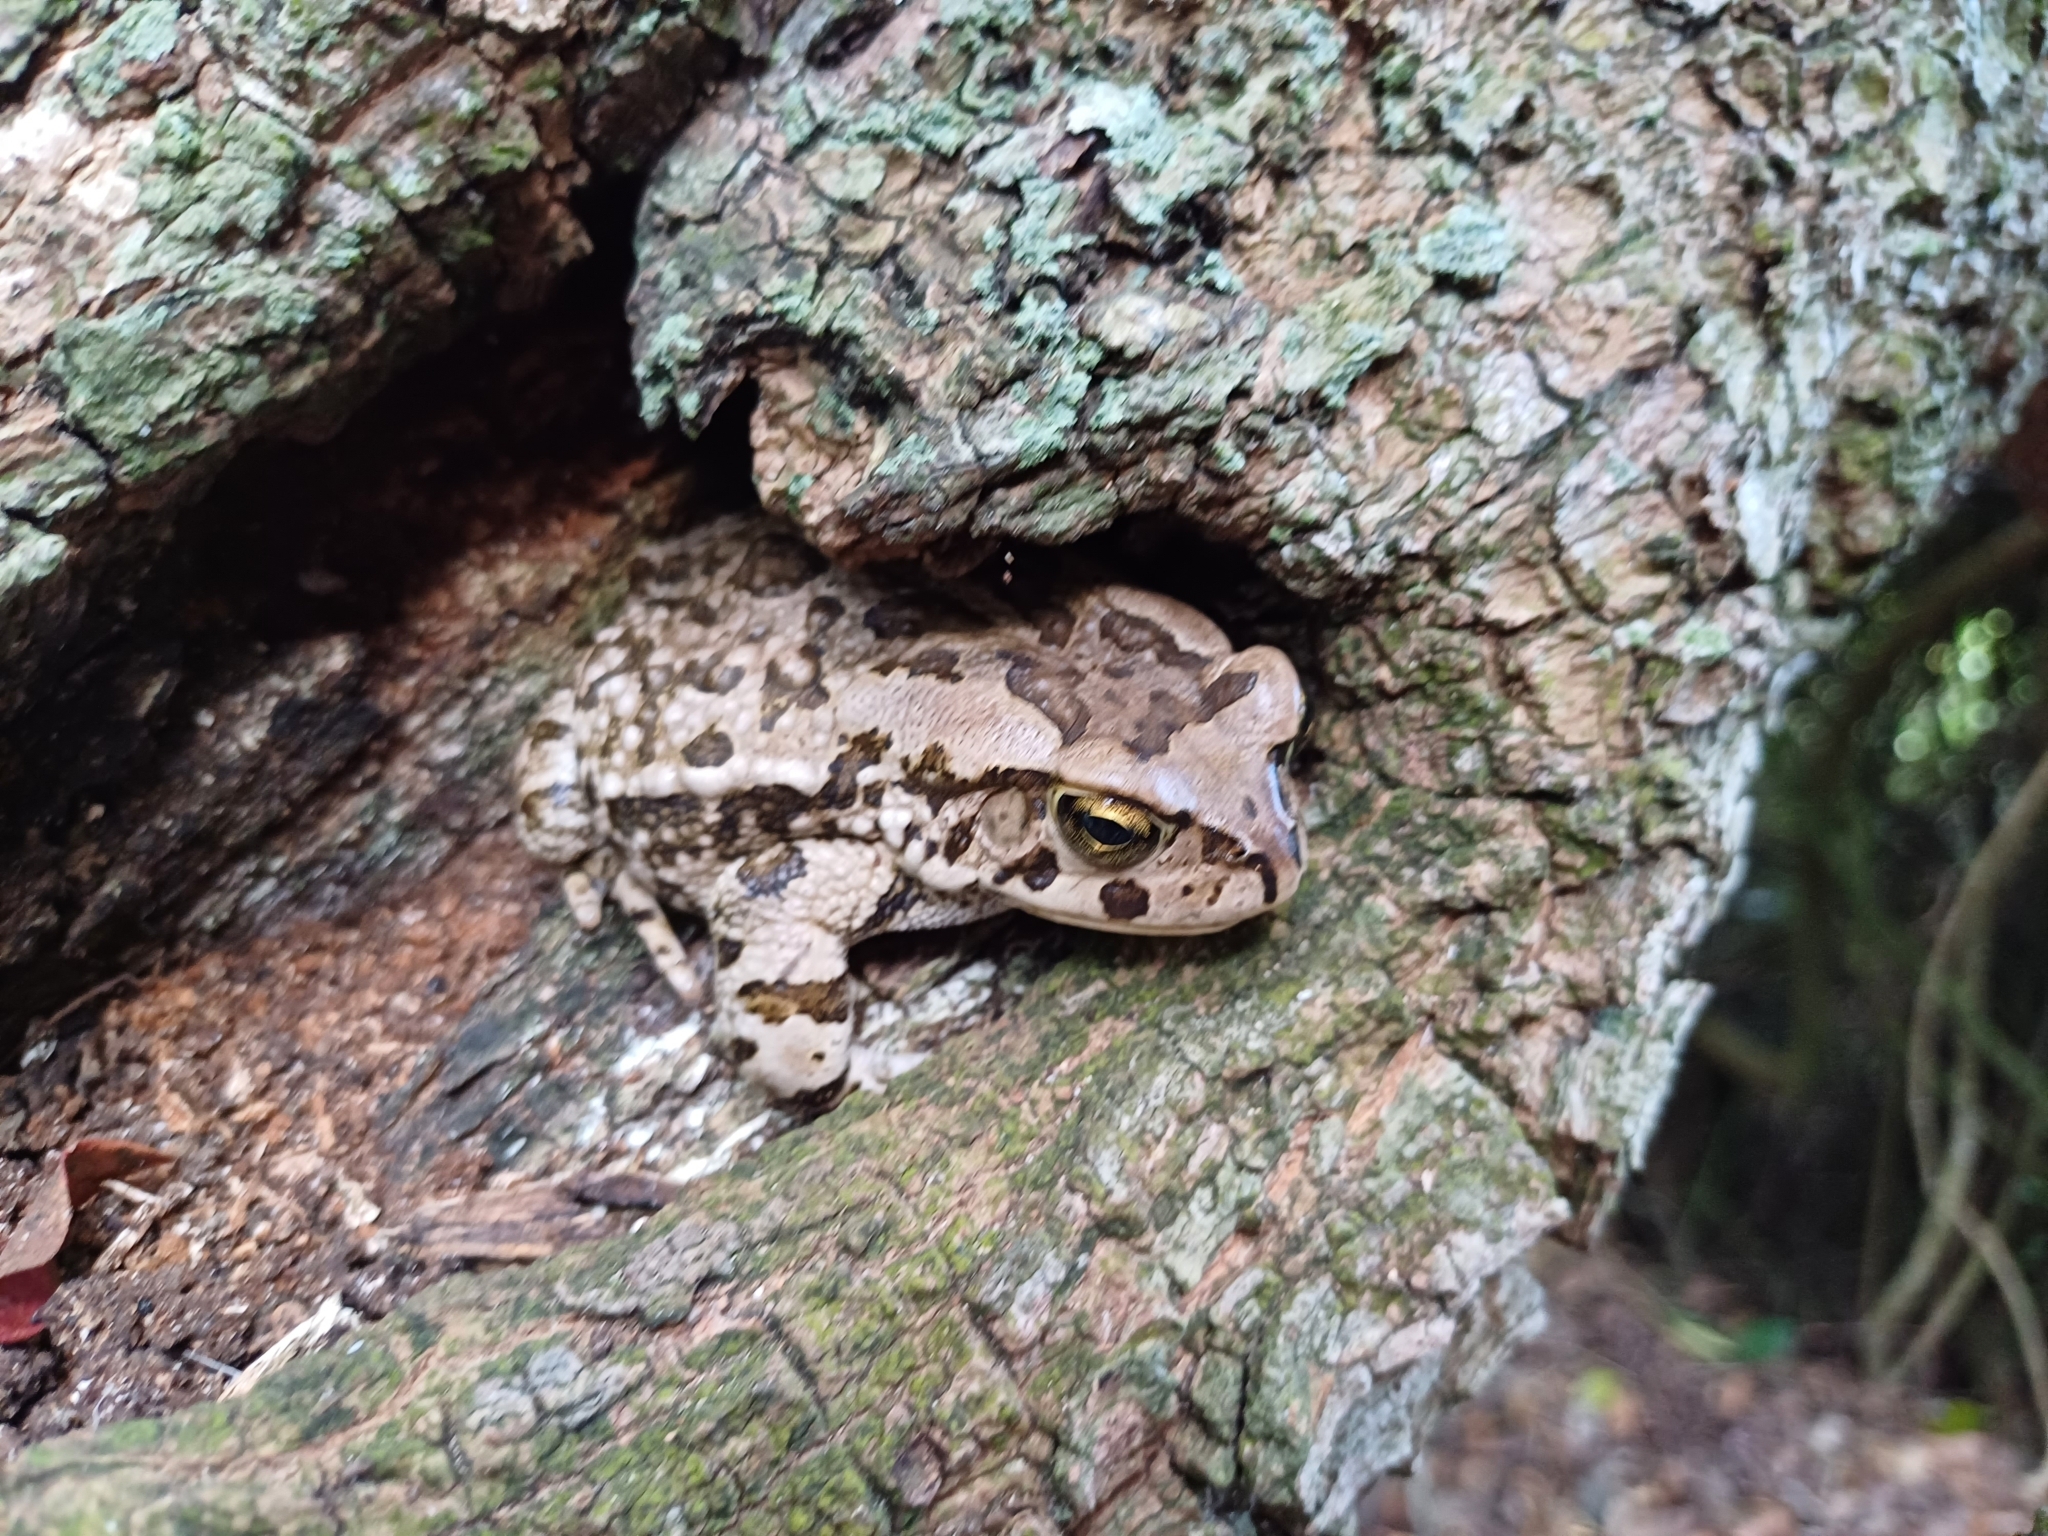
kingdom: Animalia
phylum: Chordata
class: Amphibia
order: Anura
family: Bufonidae
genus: Sclerophrys
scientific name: Sclerophrys capensis
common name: Ranger’s toad
